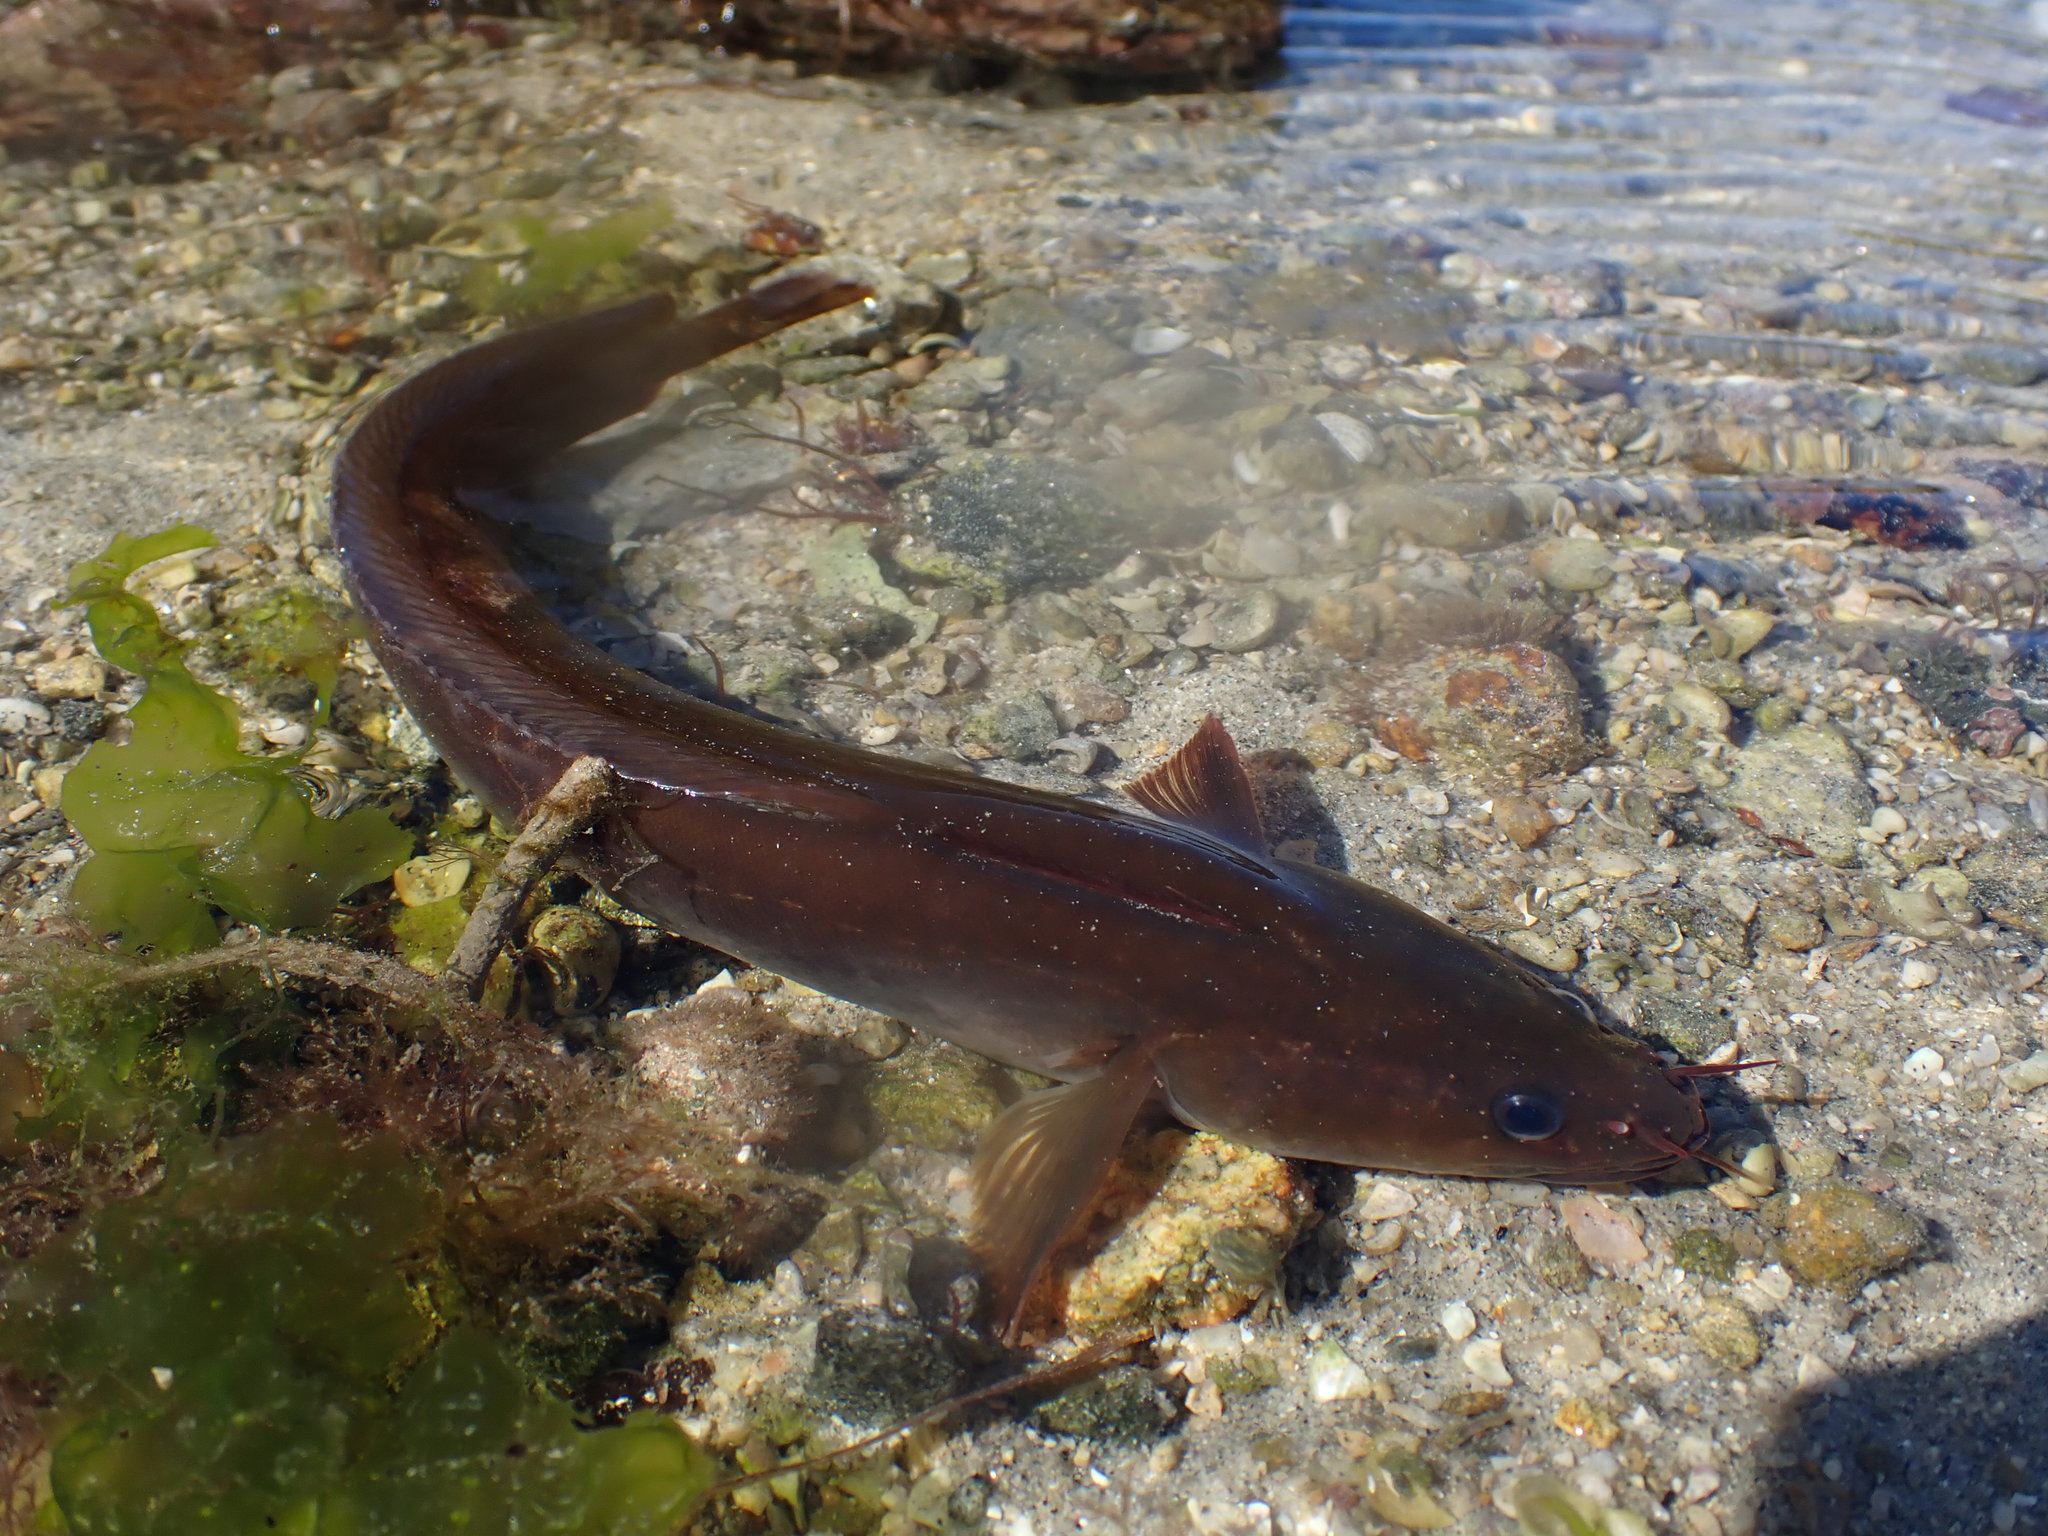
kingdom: Animalia
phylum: Chordata
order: Gadiformes
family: Lotidae
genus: Gaidropsarus
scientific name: Gaidropsarus mediterraneus
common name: Shore rockling
